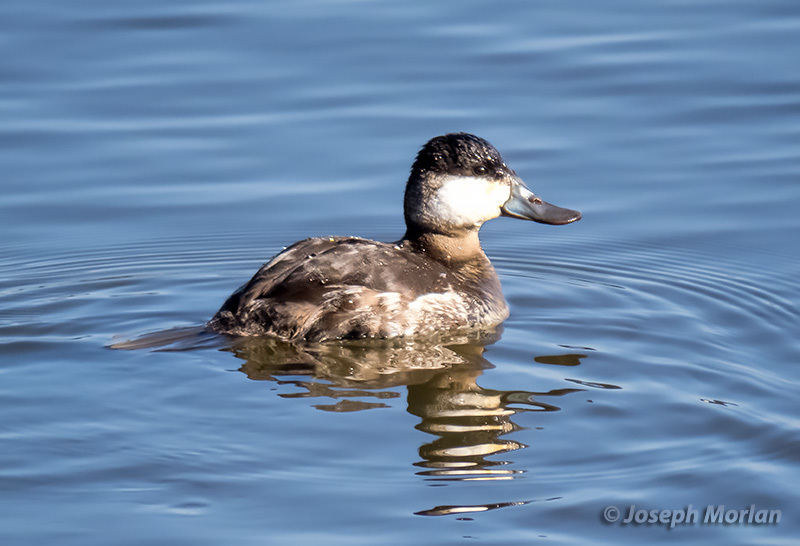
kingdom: Animalia
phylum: Chordata
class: Aves
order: Anseriformes
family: Anatidae
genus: Oxyura
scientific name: Oxyura jamaicensis
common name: Ruddy duck
